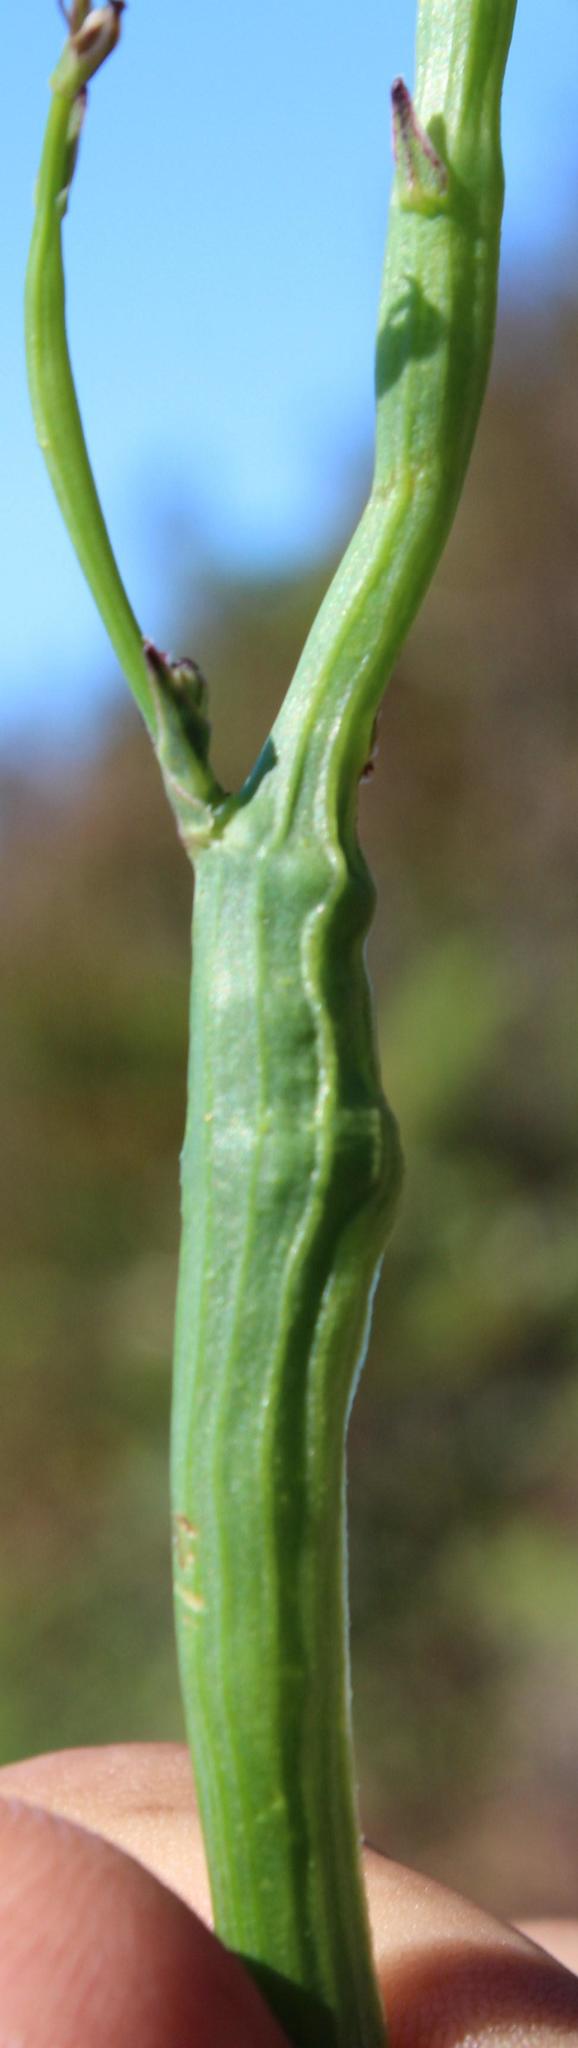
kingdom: Animalia
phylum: Arthropoda
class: Insecta
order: Hymenoptera
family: Cynipidae
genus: Phanacis
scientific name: Phanacis hypochoeridis
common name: Gall wasp
